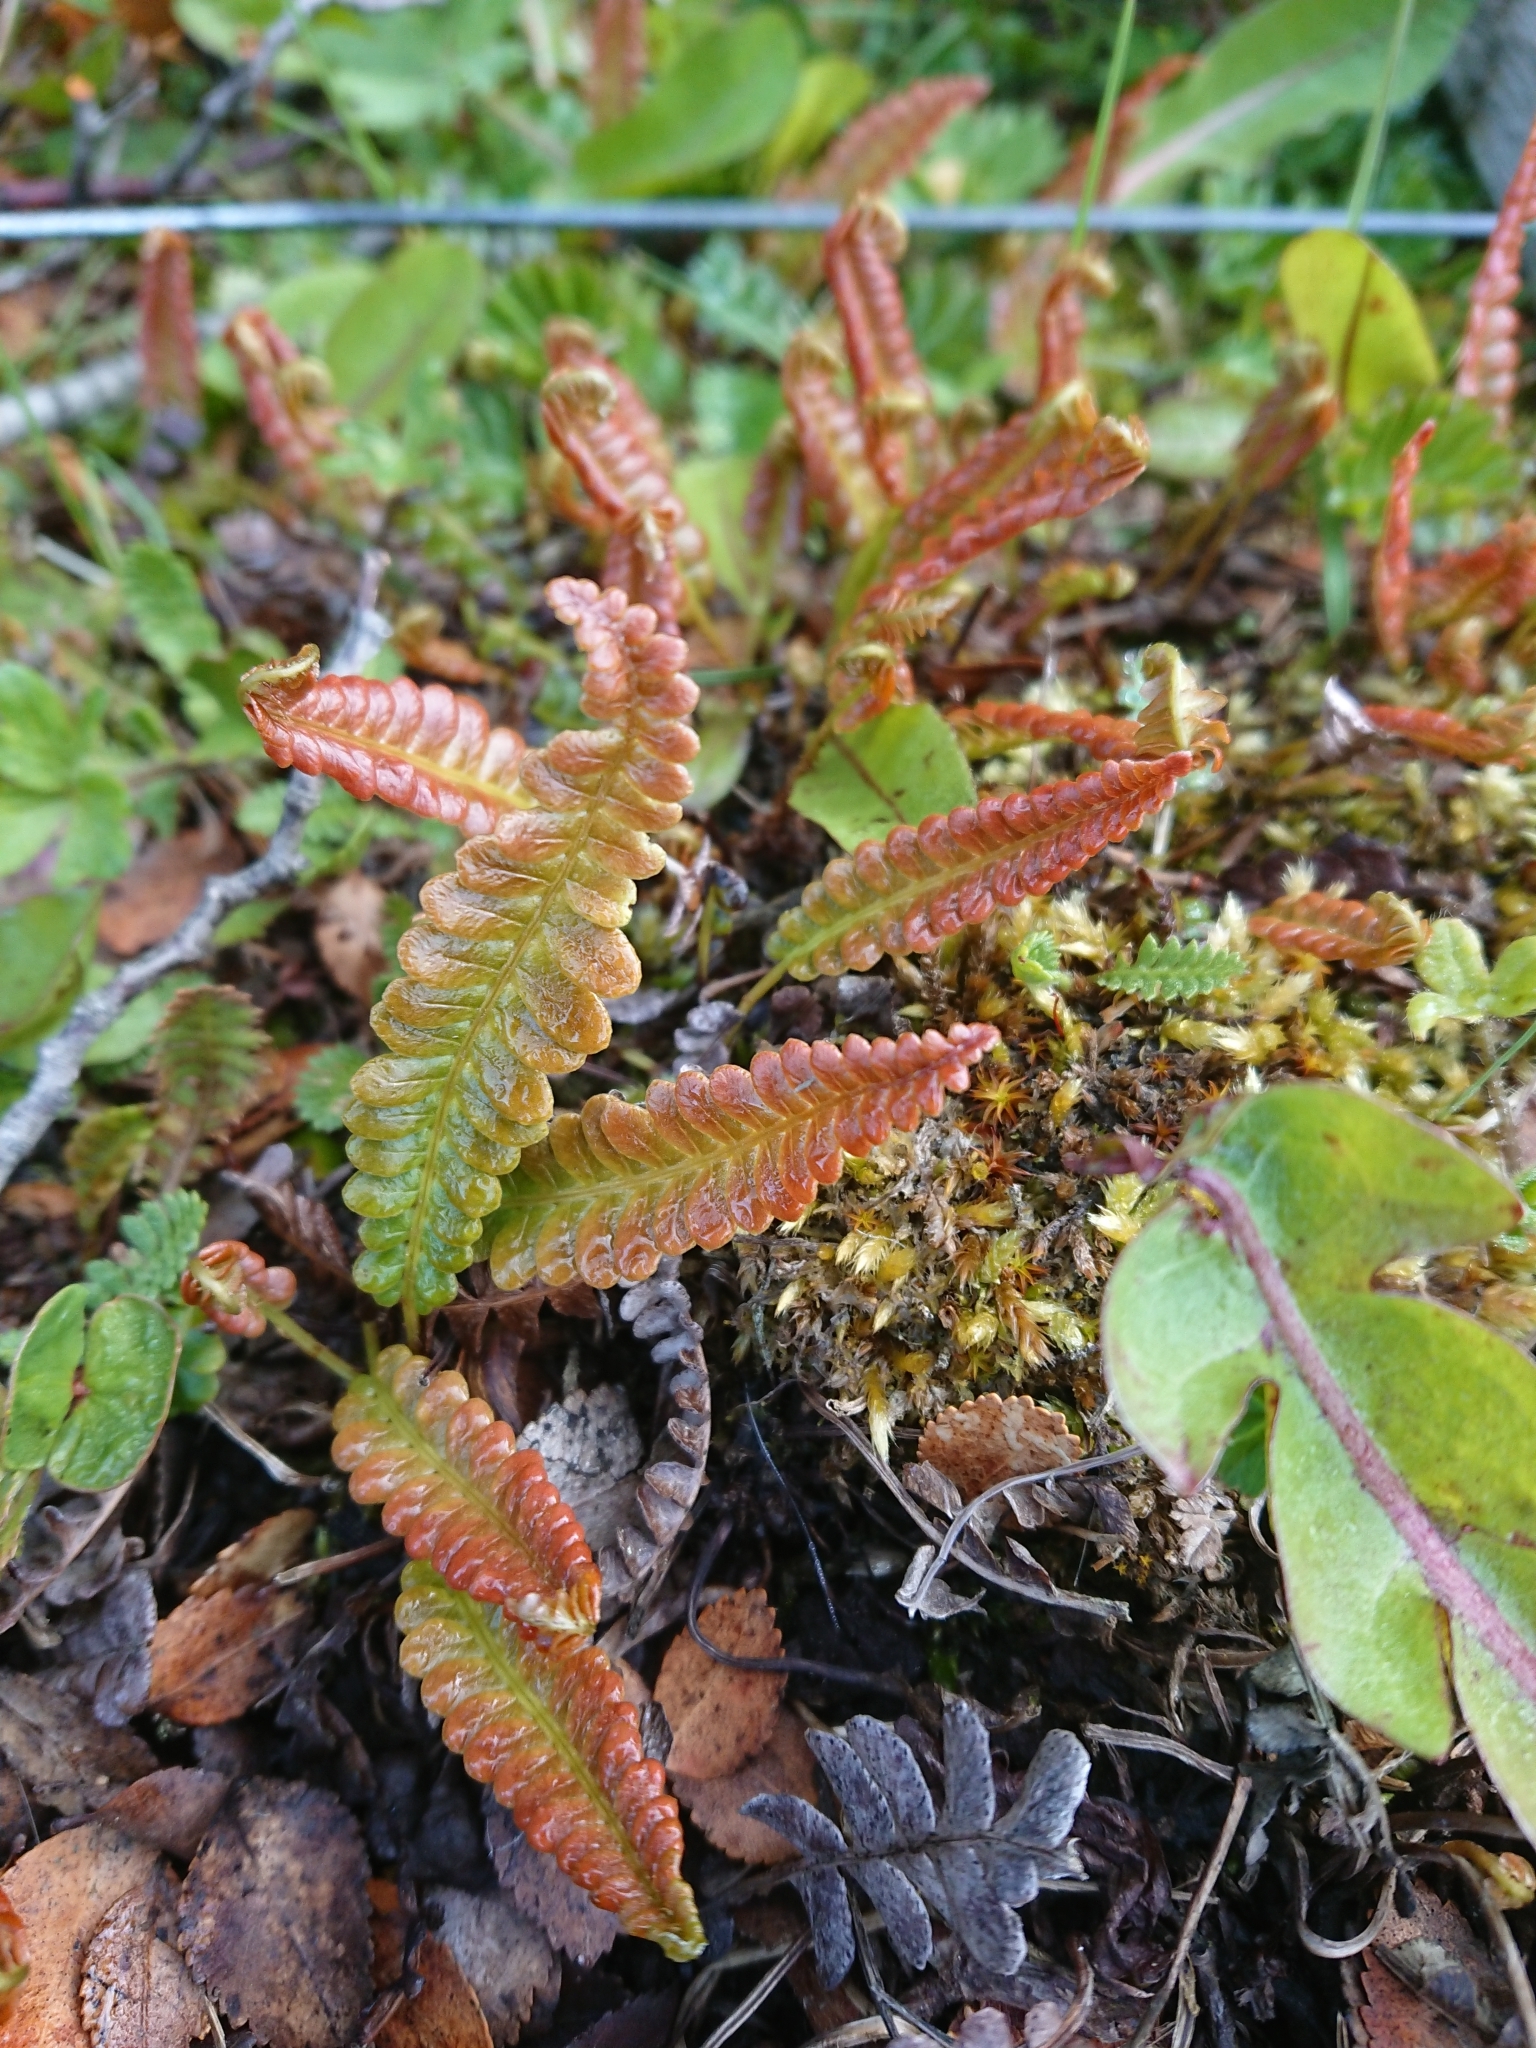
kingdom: Plantae
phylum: Tracheophyta
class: Polypodiopsida
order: Polypodiales
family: Blechnaceae
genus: Austroblechnum
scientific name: Austroblechnum penna-marina
